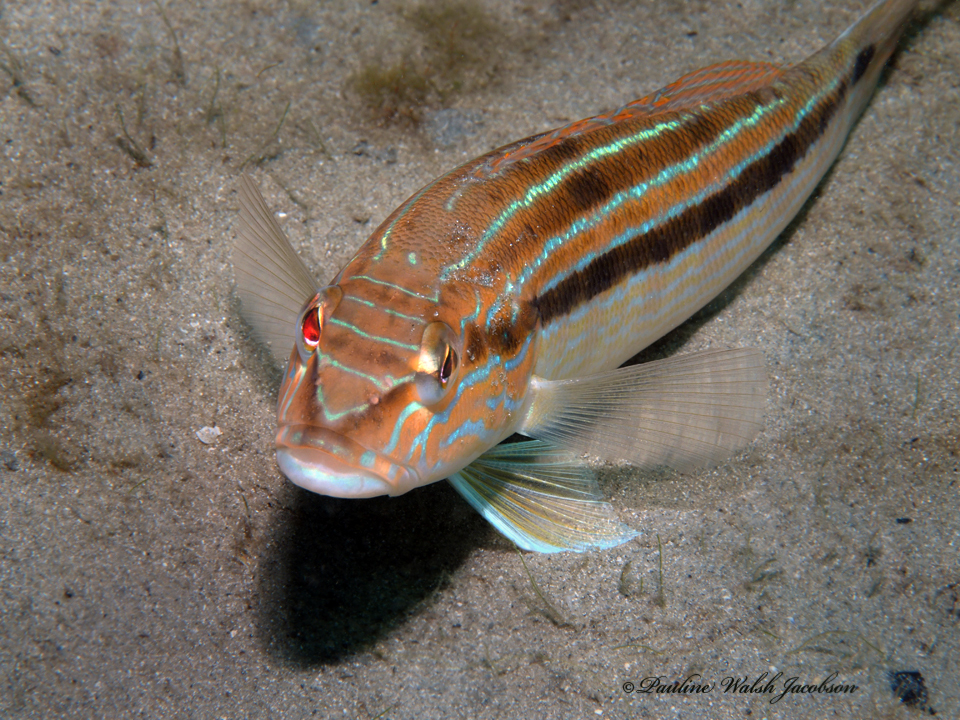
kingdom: Animalia
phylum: Chordata
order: Perciformes
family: Serranidae
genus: Diplectrum
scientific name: Diplectrum formosum
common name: Sand perch
